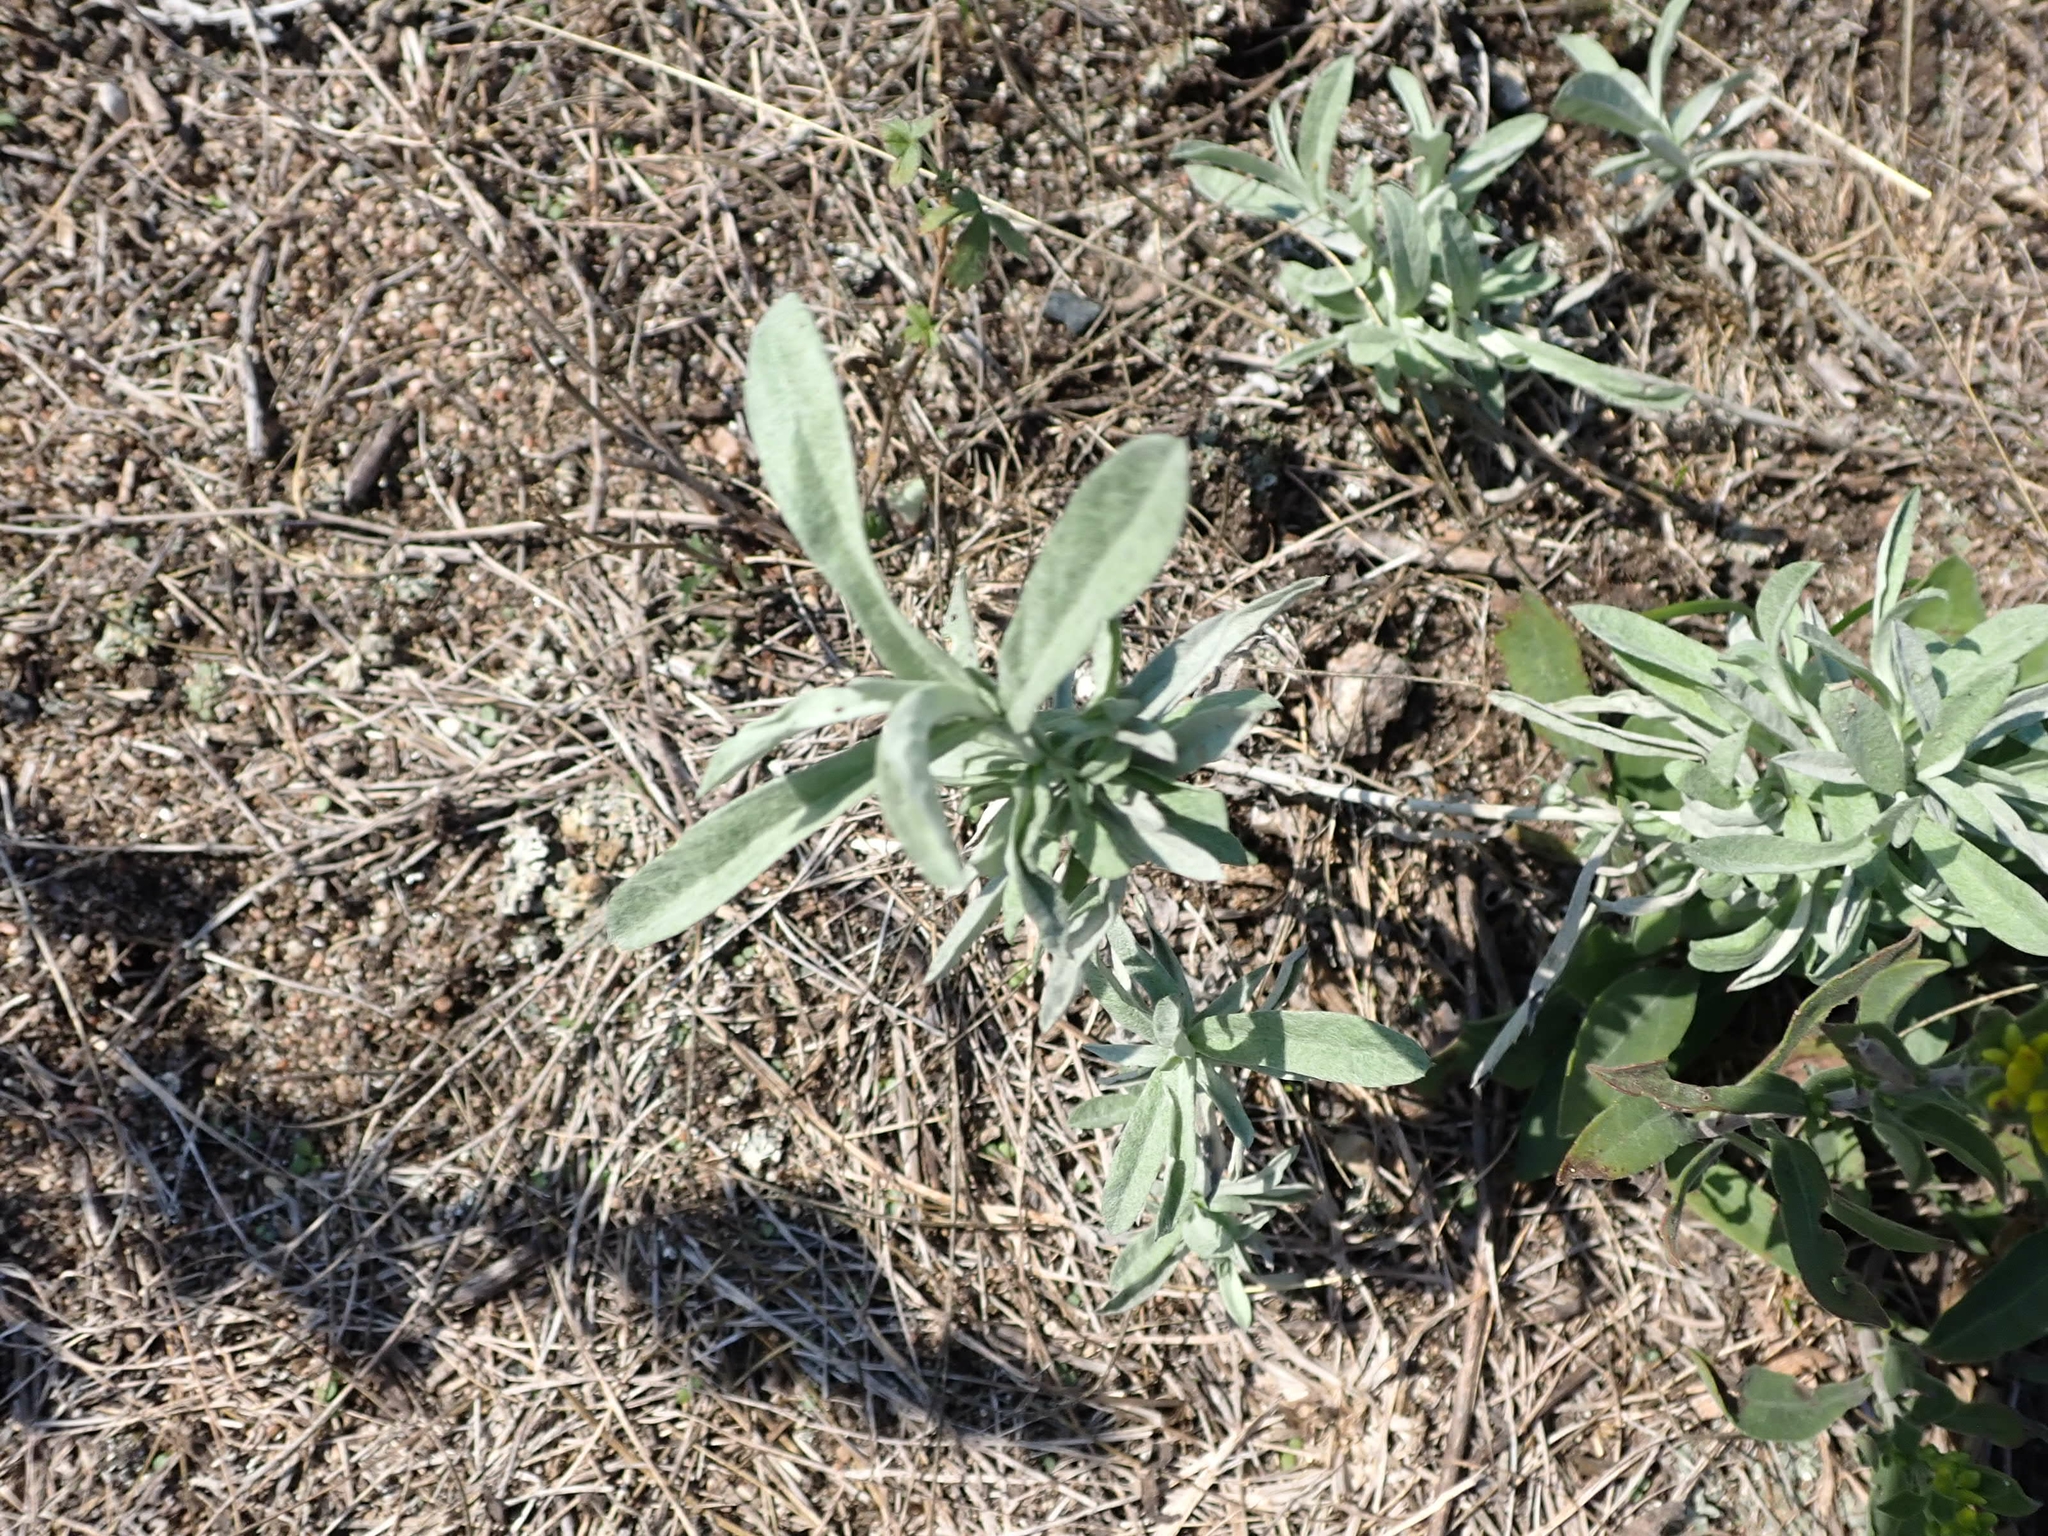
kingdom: Plantae
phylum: Tracheophyta
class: Magnoliopsida
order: Asterales
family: Asteraceae
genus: Artemisia
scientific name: Artemisia ludoviciana
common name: Western mugwort
